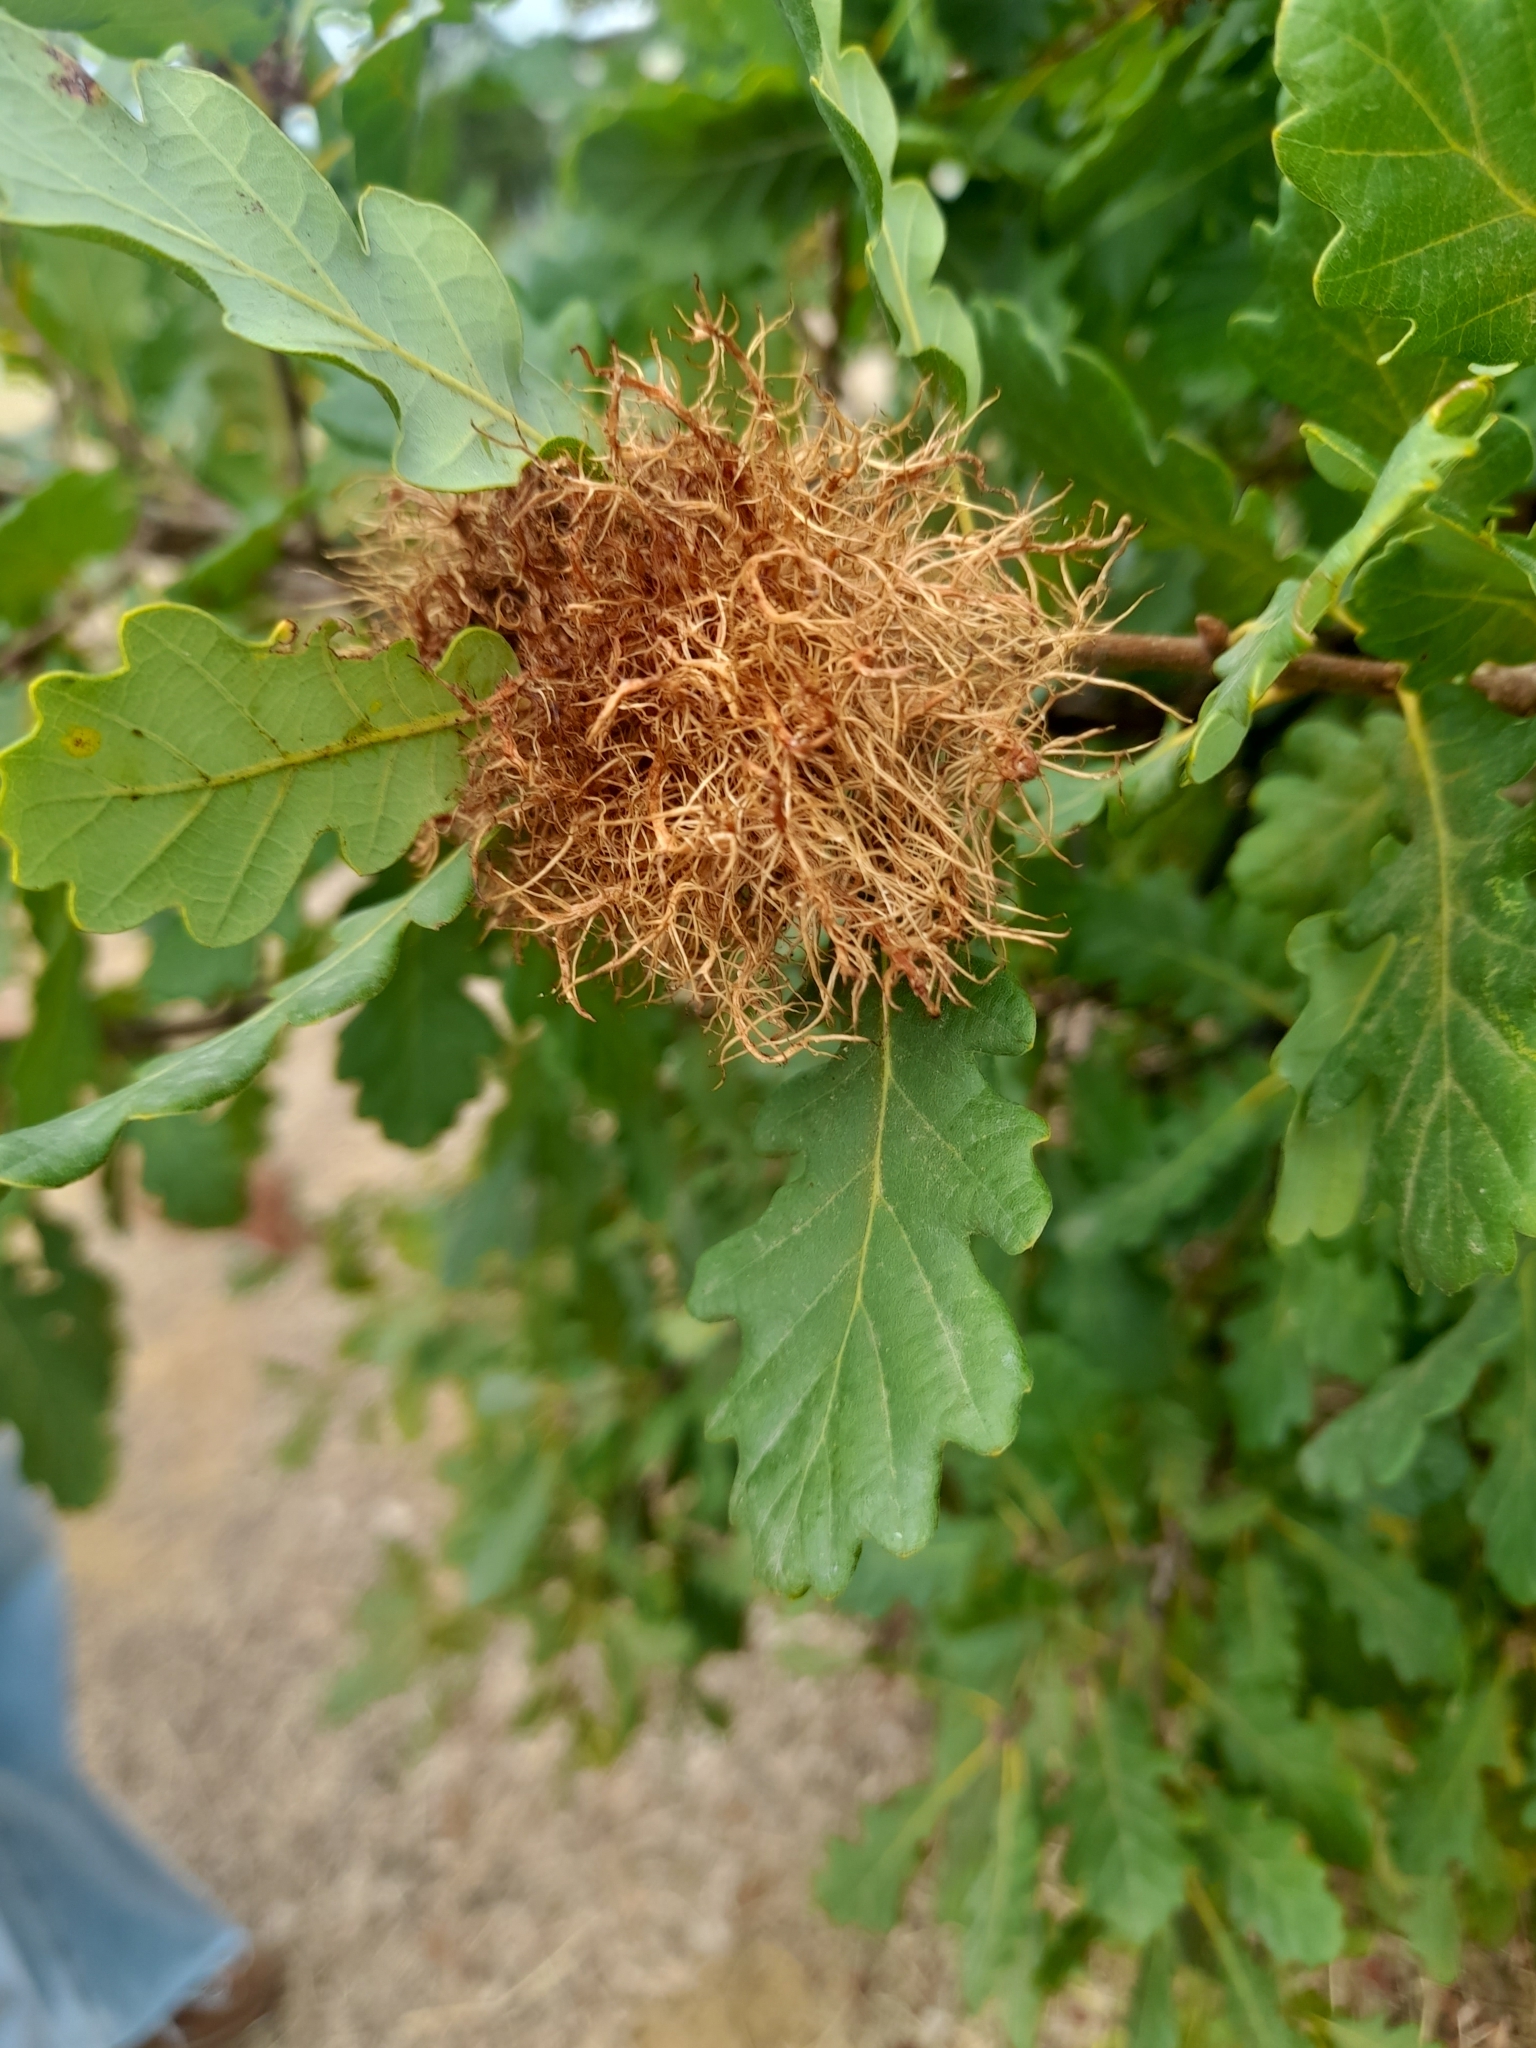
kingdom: Animalia
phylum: Arthropoda
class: Insecta
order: Hymenoptera
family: Cynipidae
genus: Andricus
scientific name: Andricus caputmedusae
